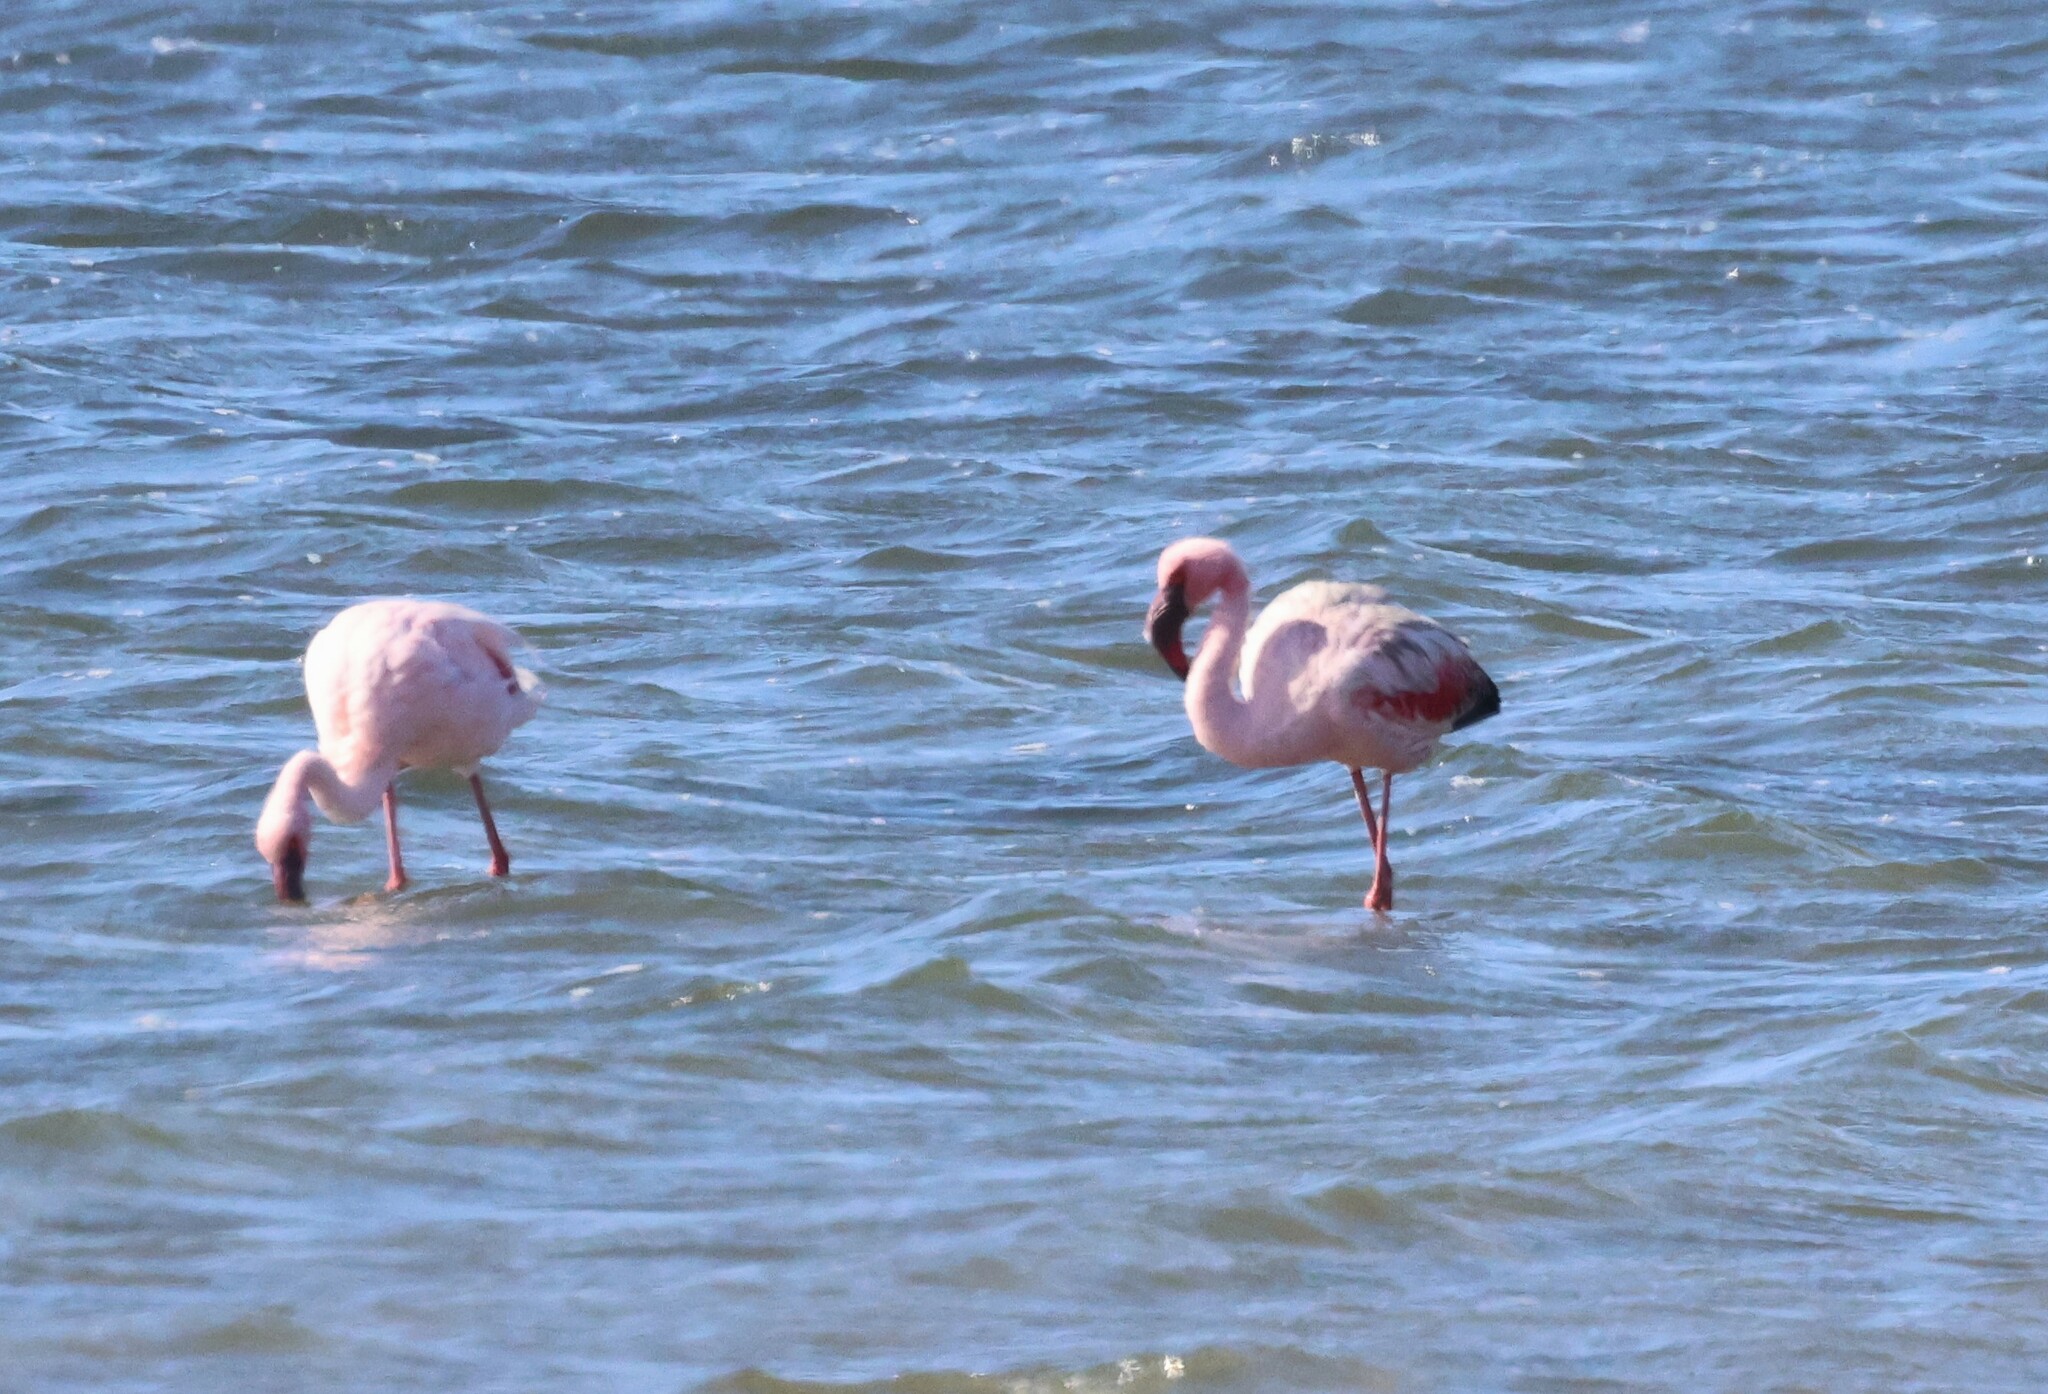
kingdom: Animalia
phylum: Chordata
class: Aves
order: Phoenicopteriformes
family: Phoenicopteridae
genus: Phoeniconaias
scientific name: Phoeniconaias minor
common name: Lesser flamingo
